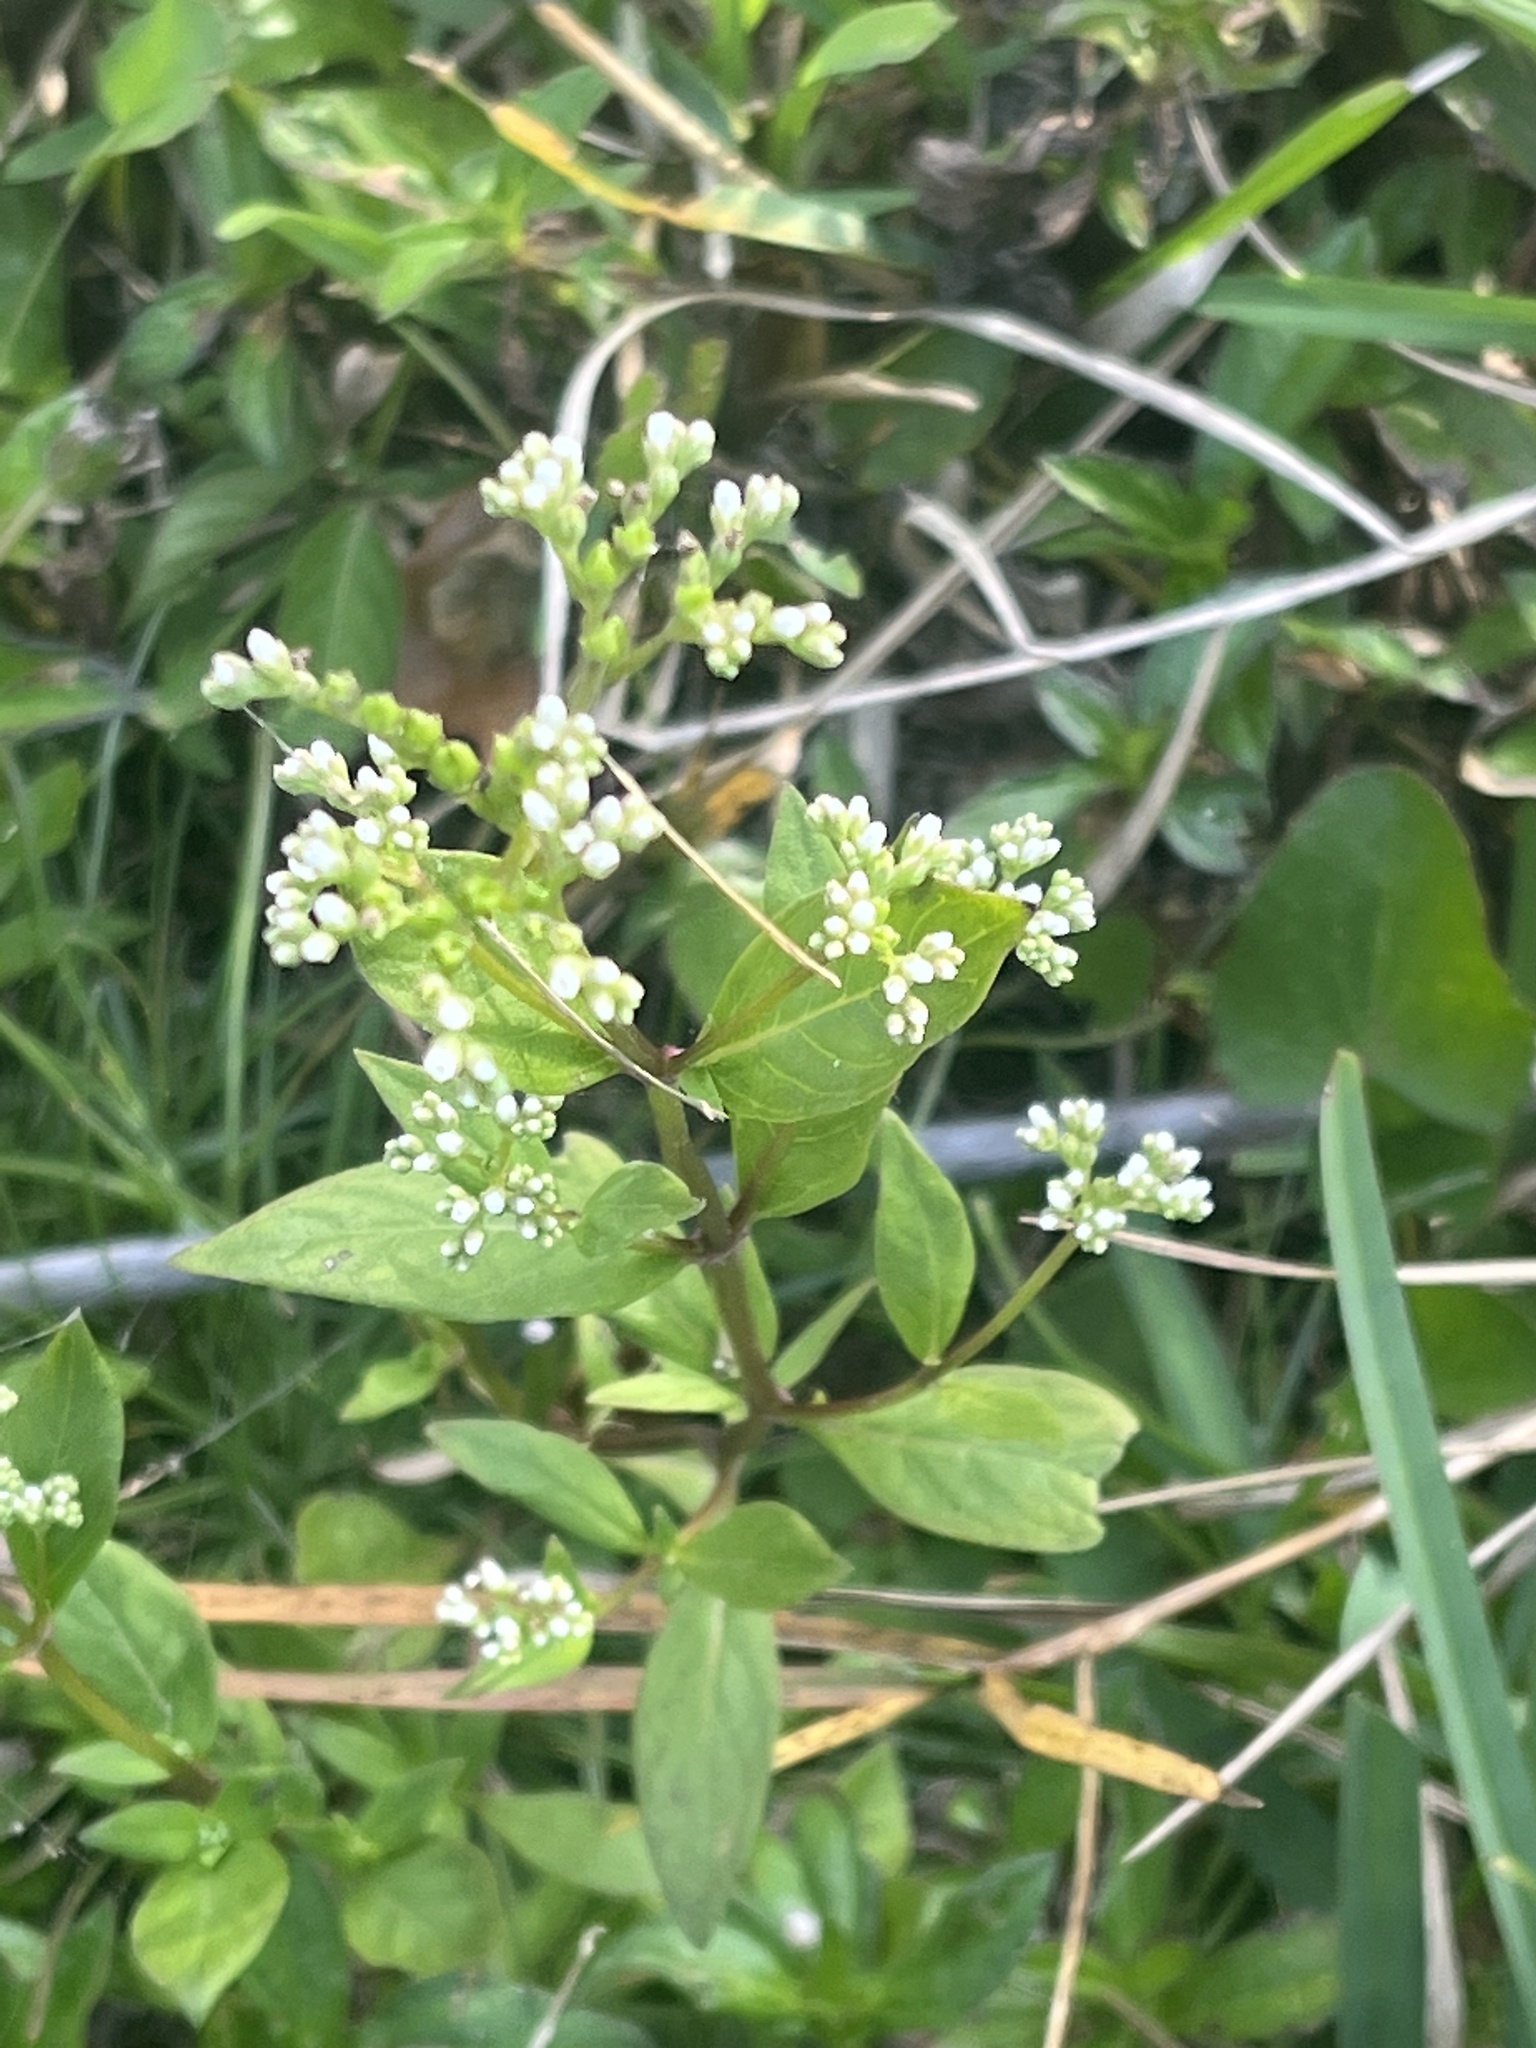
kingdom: Plantae
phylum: Tracheophyta
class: Magnoliopsida
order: Gentianales
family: Loganiaceae
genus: Mitreola
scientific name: Mitreola petiolata
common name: Lax hornpod
